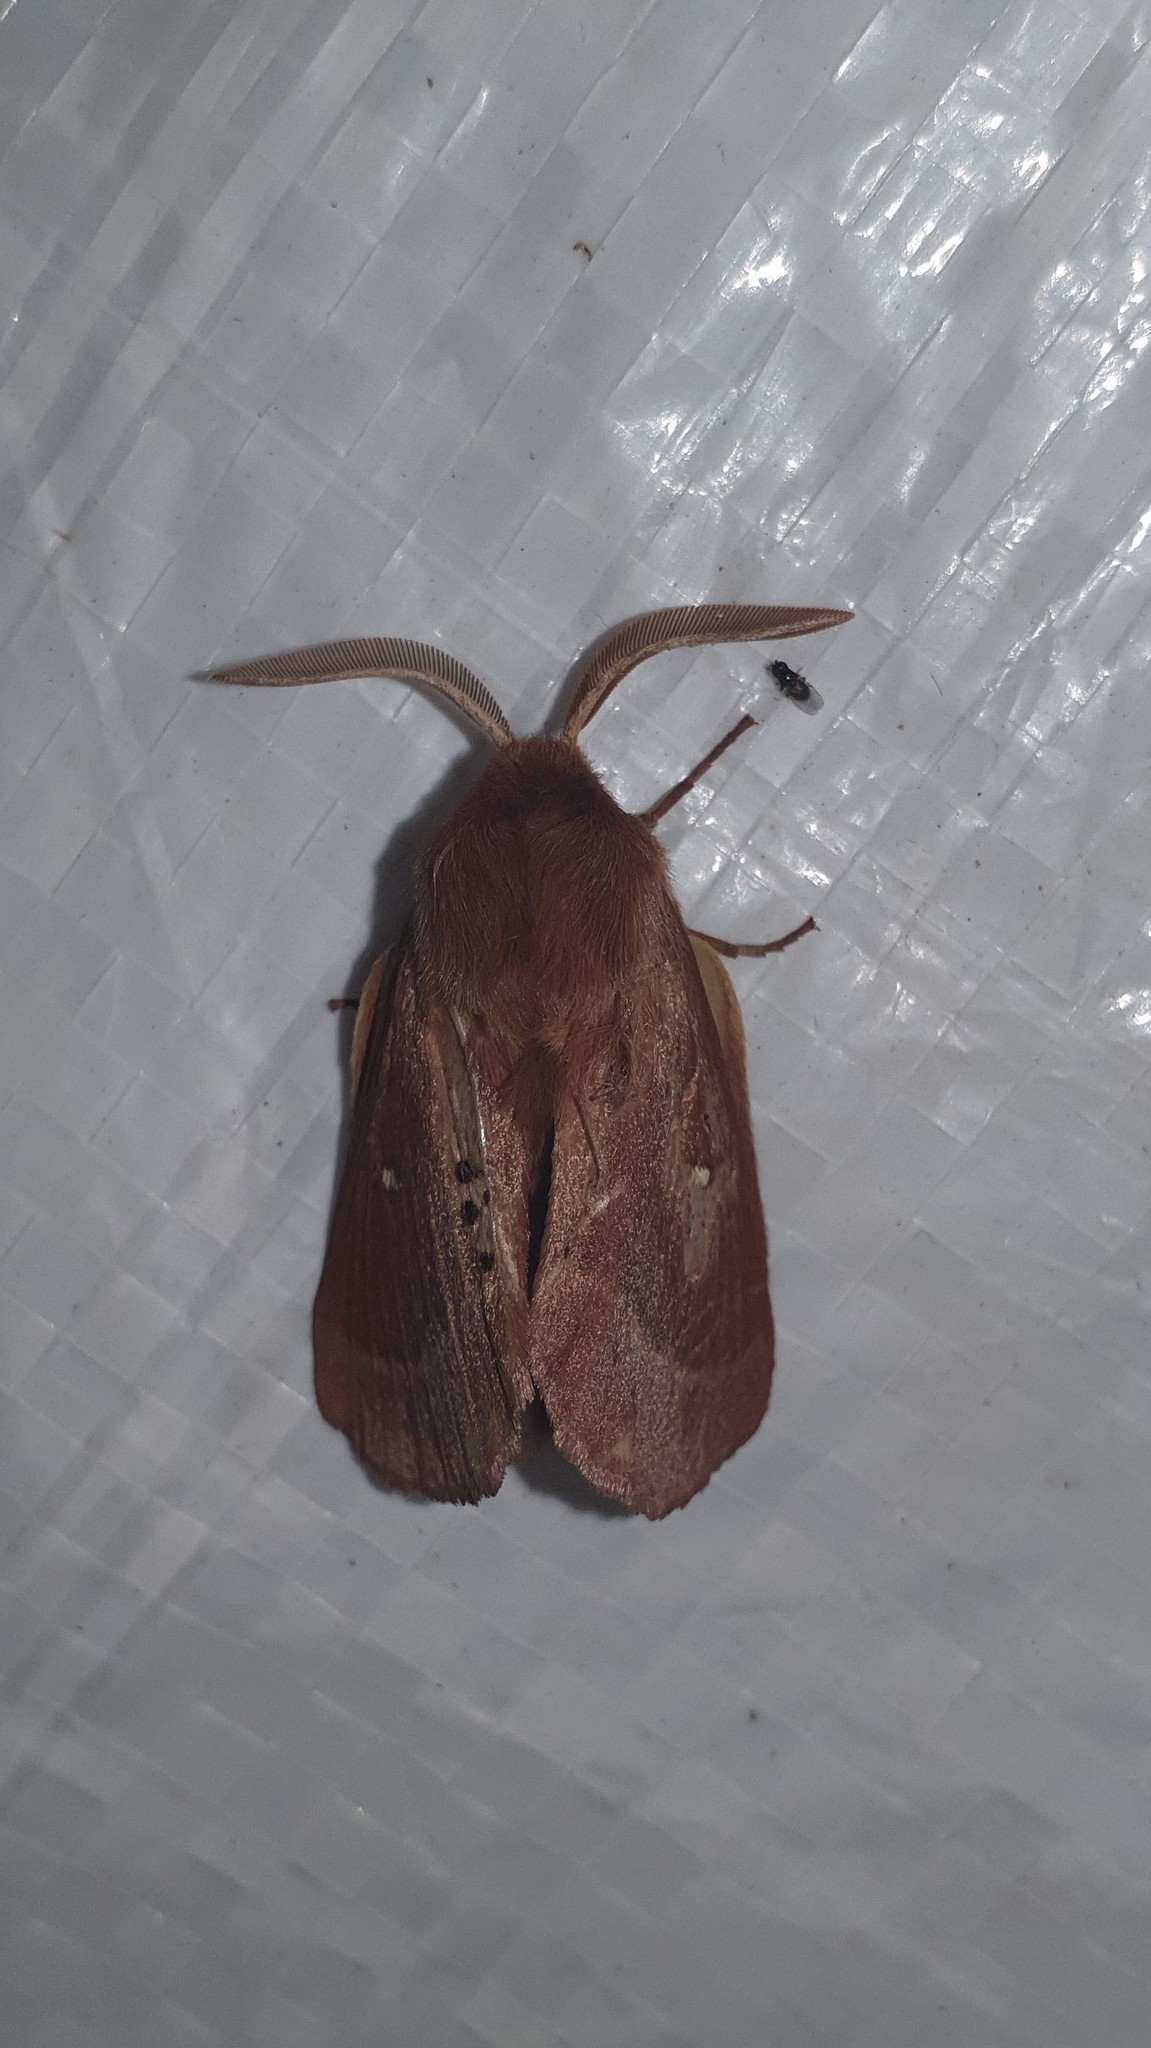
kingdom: Animalia
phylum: Arthropoda
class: Insecta
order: Lepidoptera
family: Lasiocampidae
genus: Lasiocampa
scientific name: Lasiocampa trifolii
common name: Grass eggar
